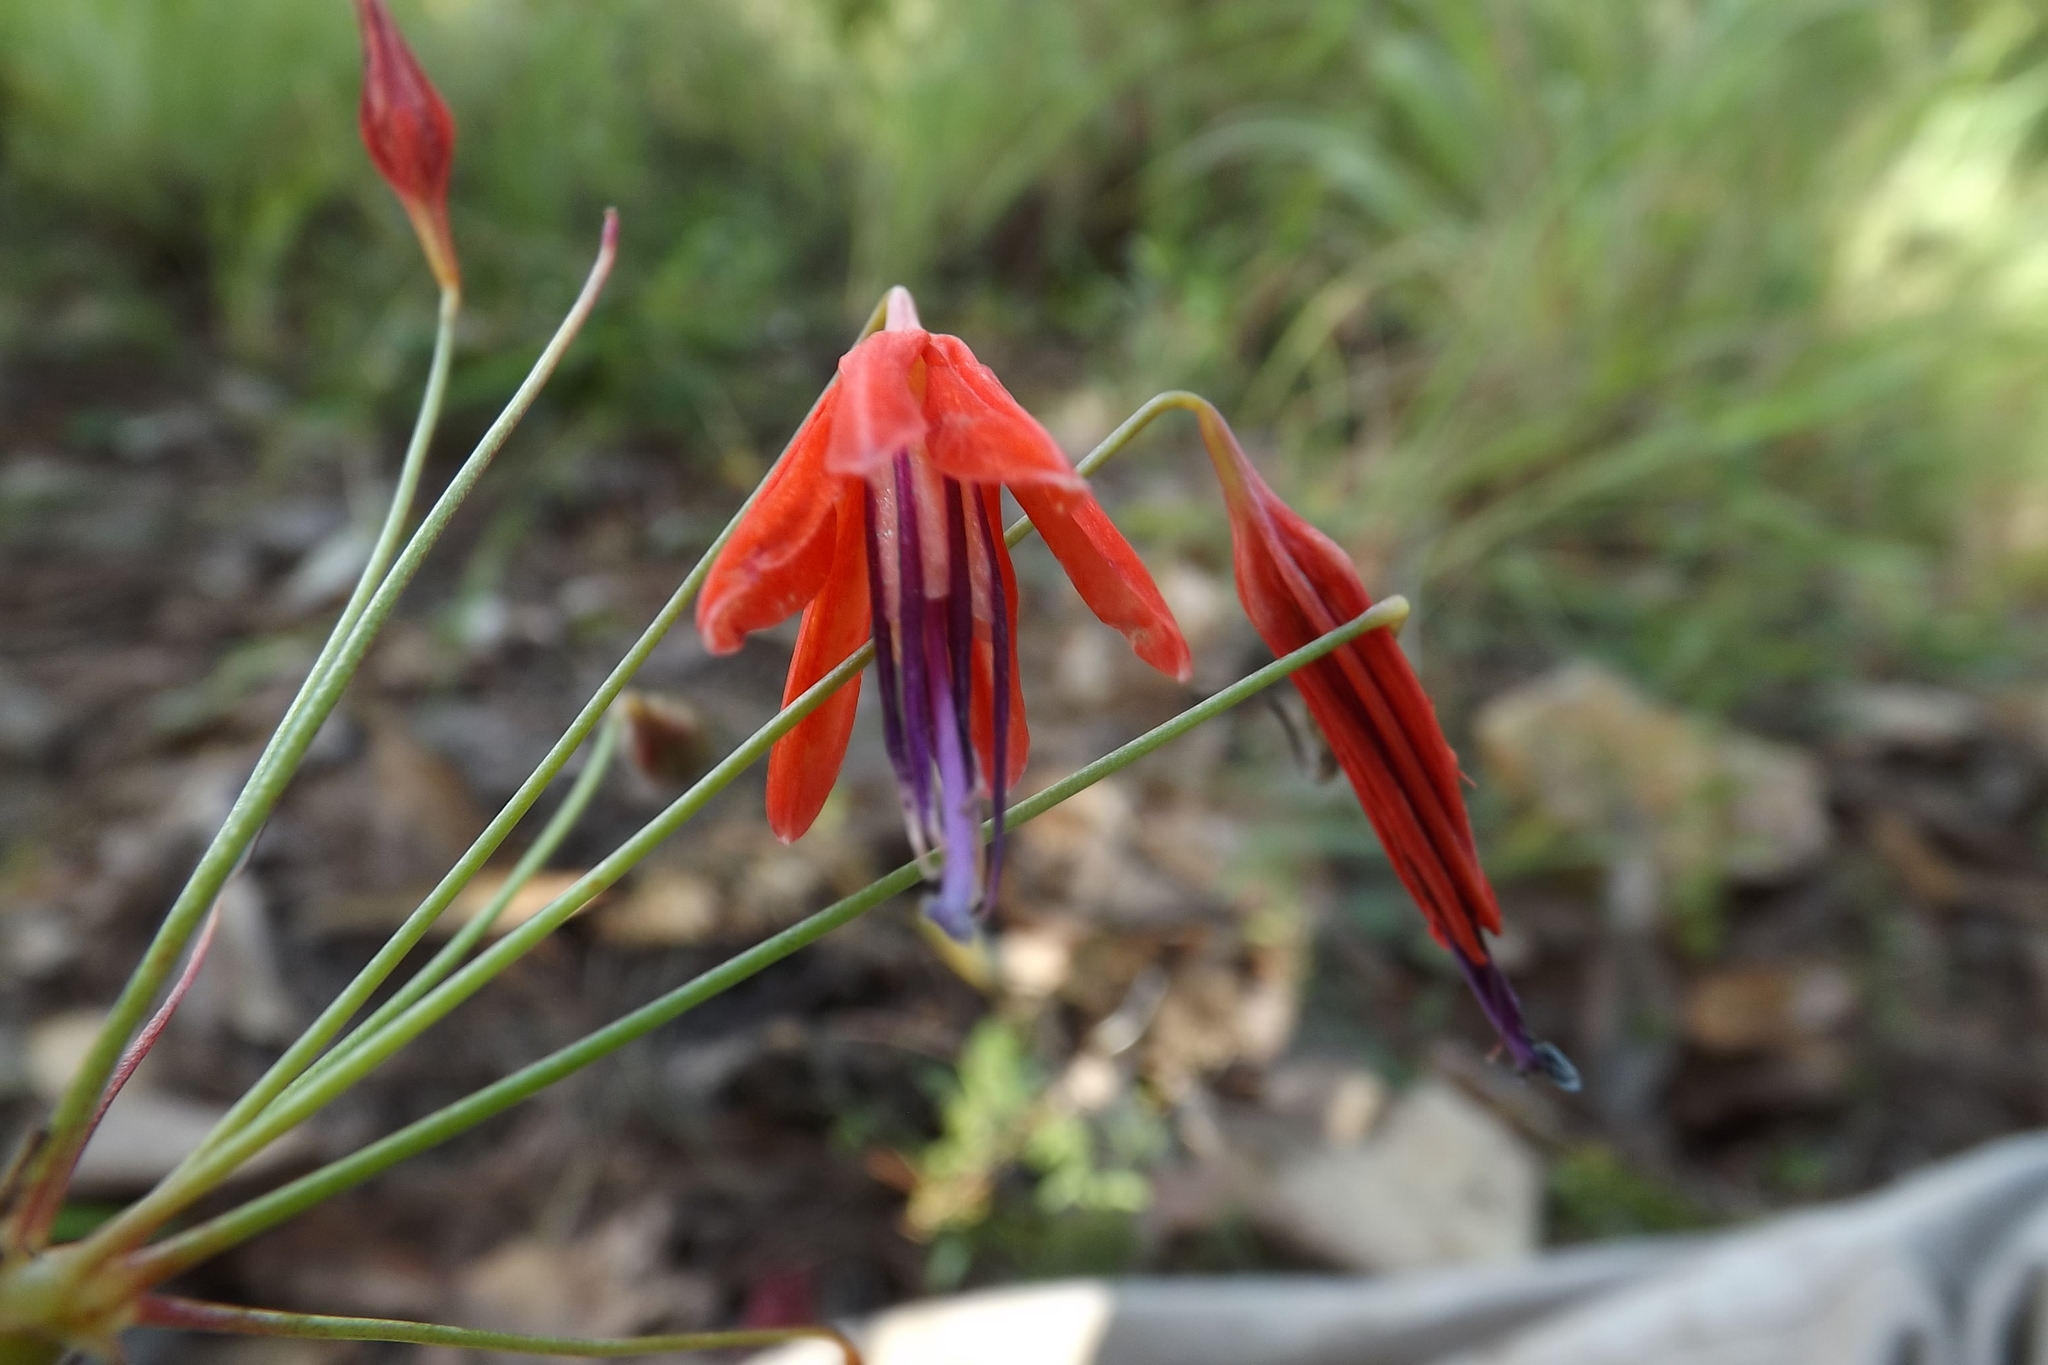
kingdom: Plantae
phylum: Tracheophyta
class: Liliopsida
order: Asparagales
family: Asparagaceae
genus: Bessera
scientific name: Bessera elegans
